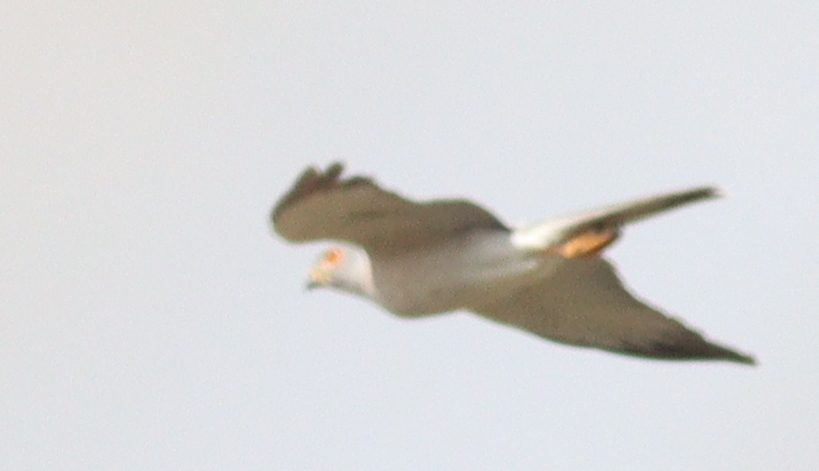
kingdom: Animalia
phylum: Chordata
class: Aves
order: Accipitriformes
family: Accipitridae
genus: Accipiter
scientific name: Accipiter badius
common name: Shikra
